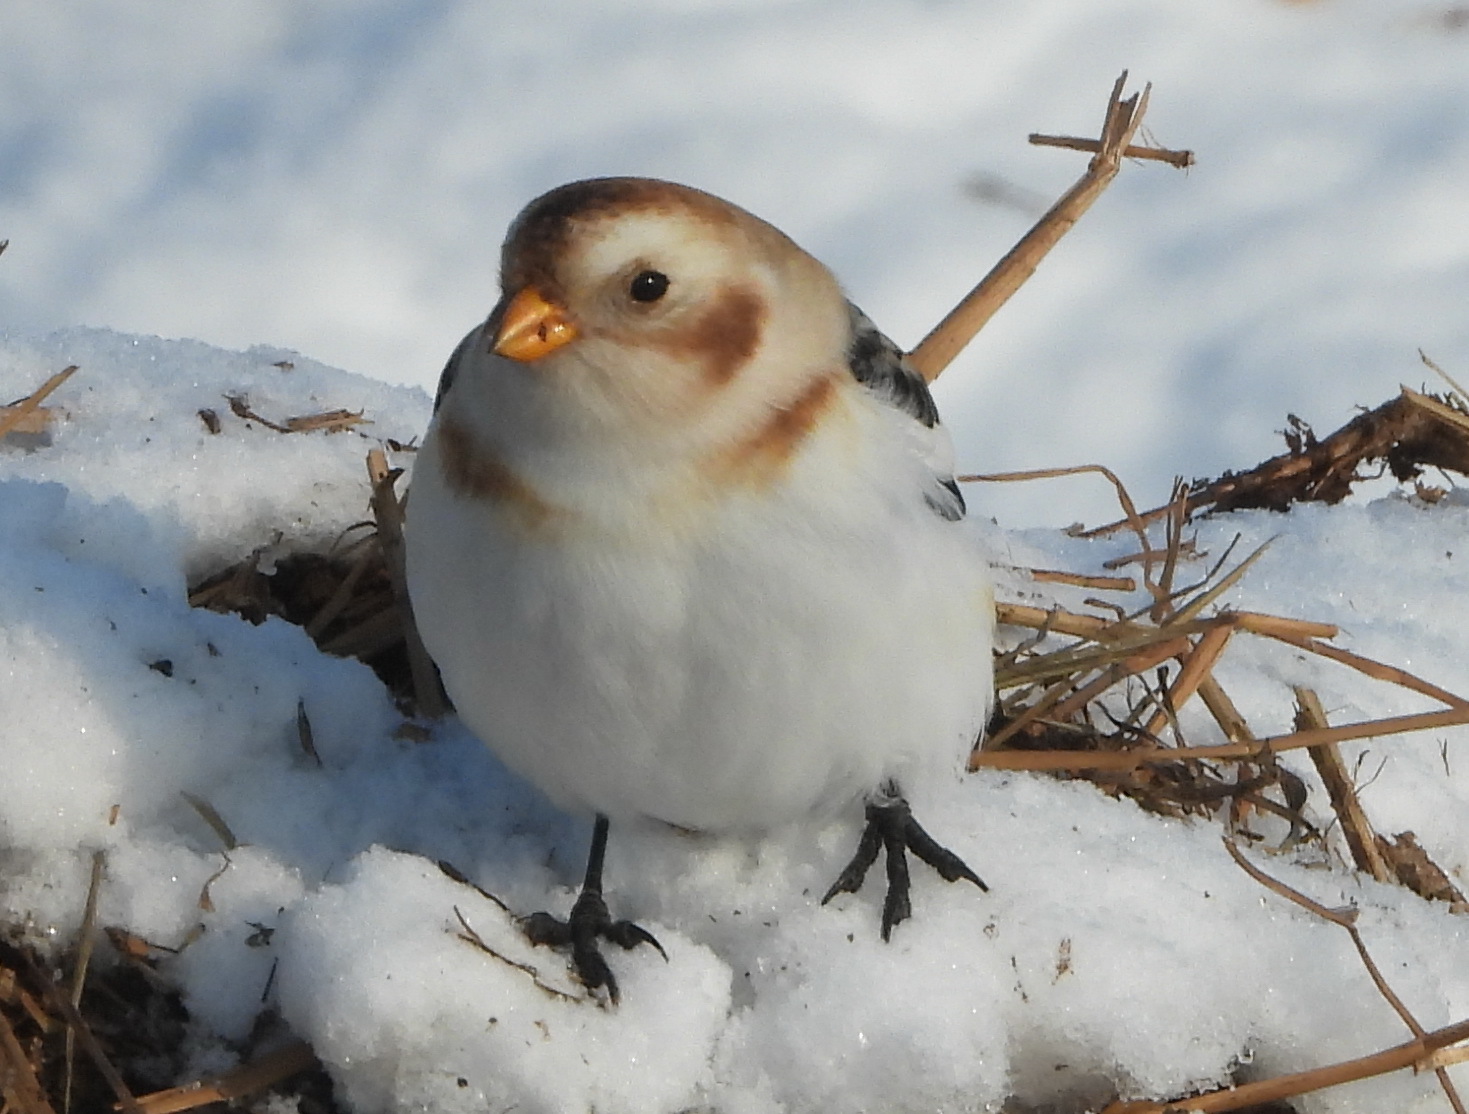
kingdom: Animalia
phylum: Chordata
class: Aves
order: Passeriformes
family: Calcariidae
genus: Plectrophenax
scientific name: Plectrophenax nivalis
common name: Snow bunting
